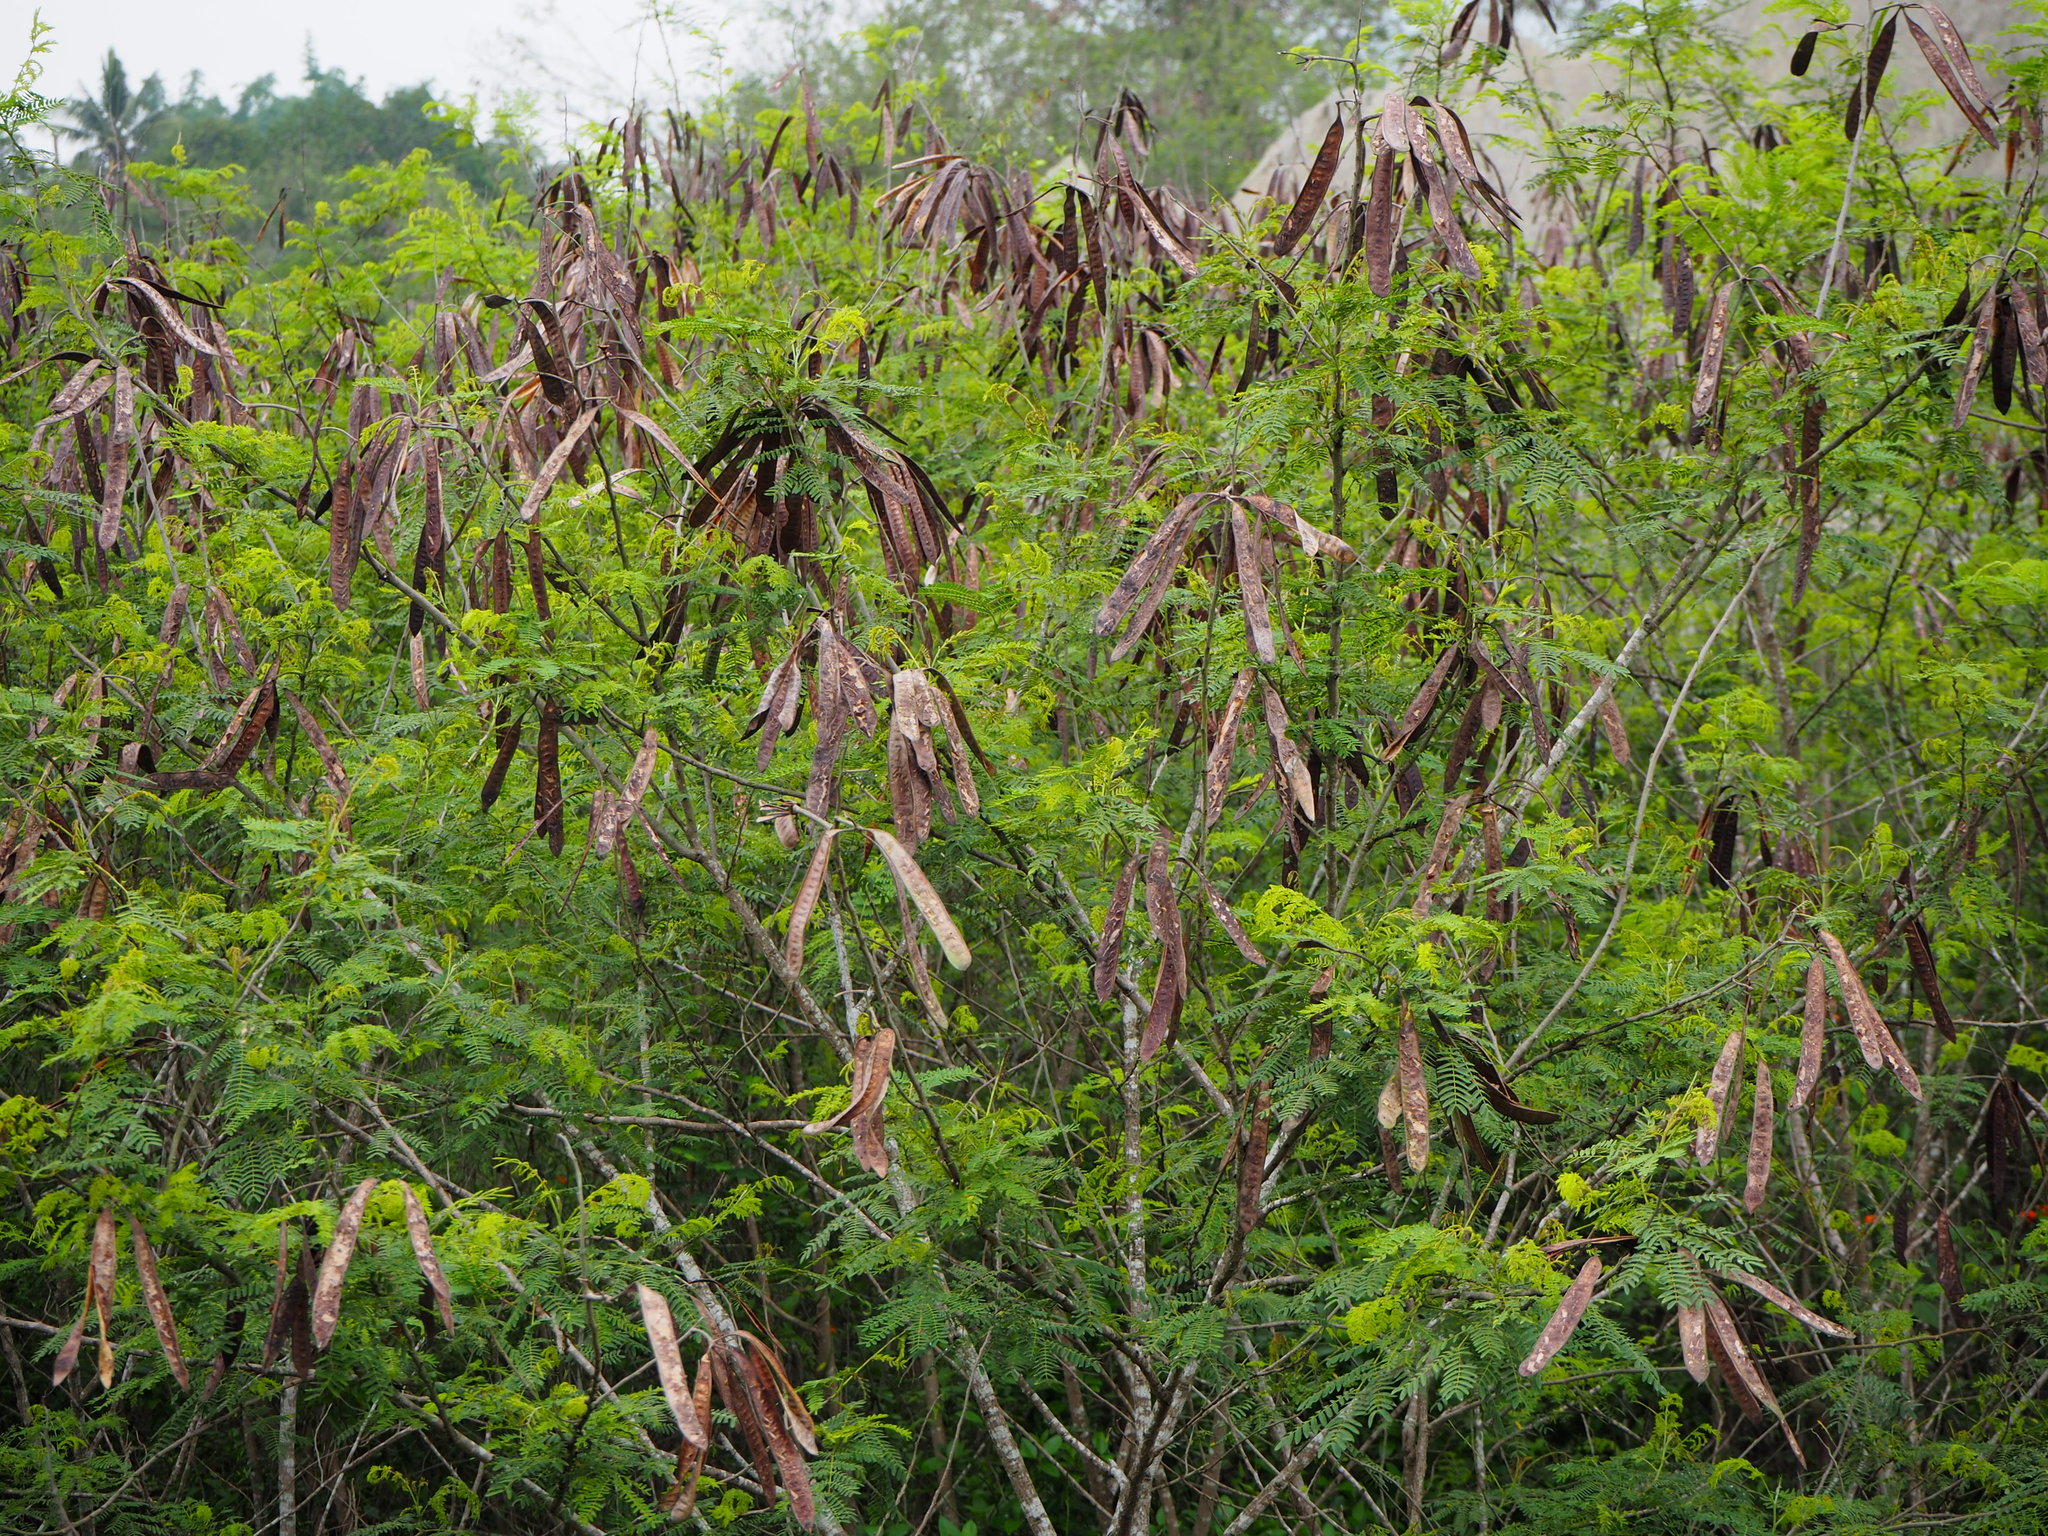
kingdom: Plantae
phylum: Tracheophyta
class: Magnoliopsida
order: Fabales
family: Fabaceae
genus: Leucaena
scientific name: Leucaena leucocephala
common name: White leadtree
